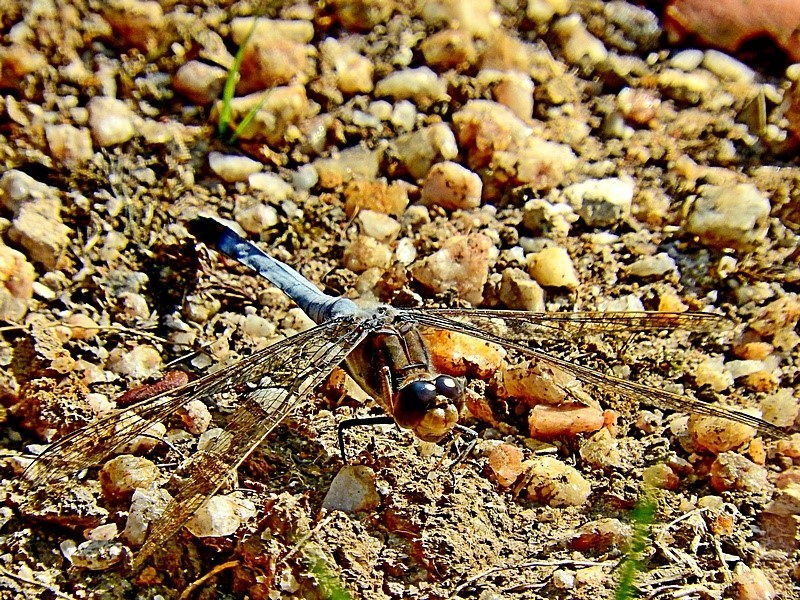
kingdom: Animalia
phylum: Arthropoda
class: Insecta
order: Odonata
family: Libellulidae
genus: Orthetrum
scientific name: Orthetrum caledonicum
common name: Blue skimmer
